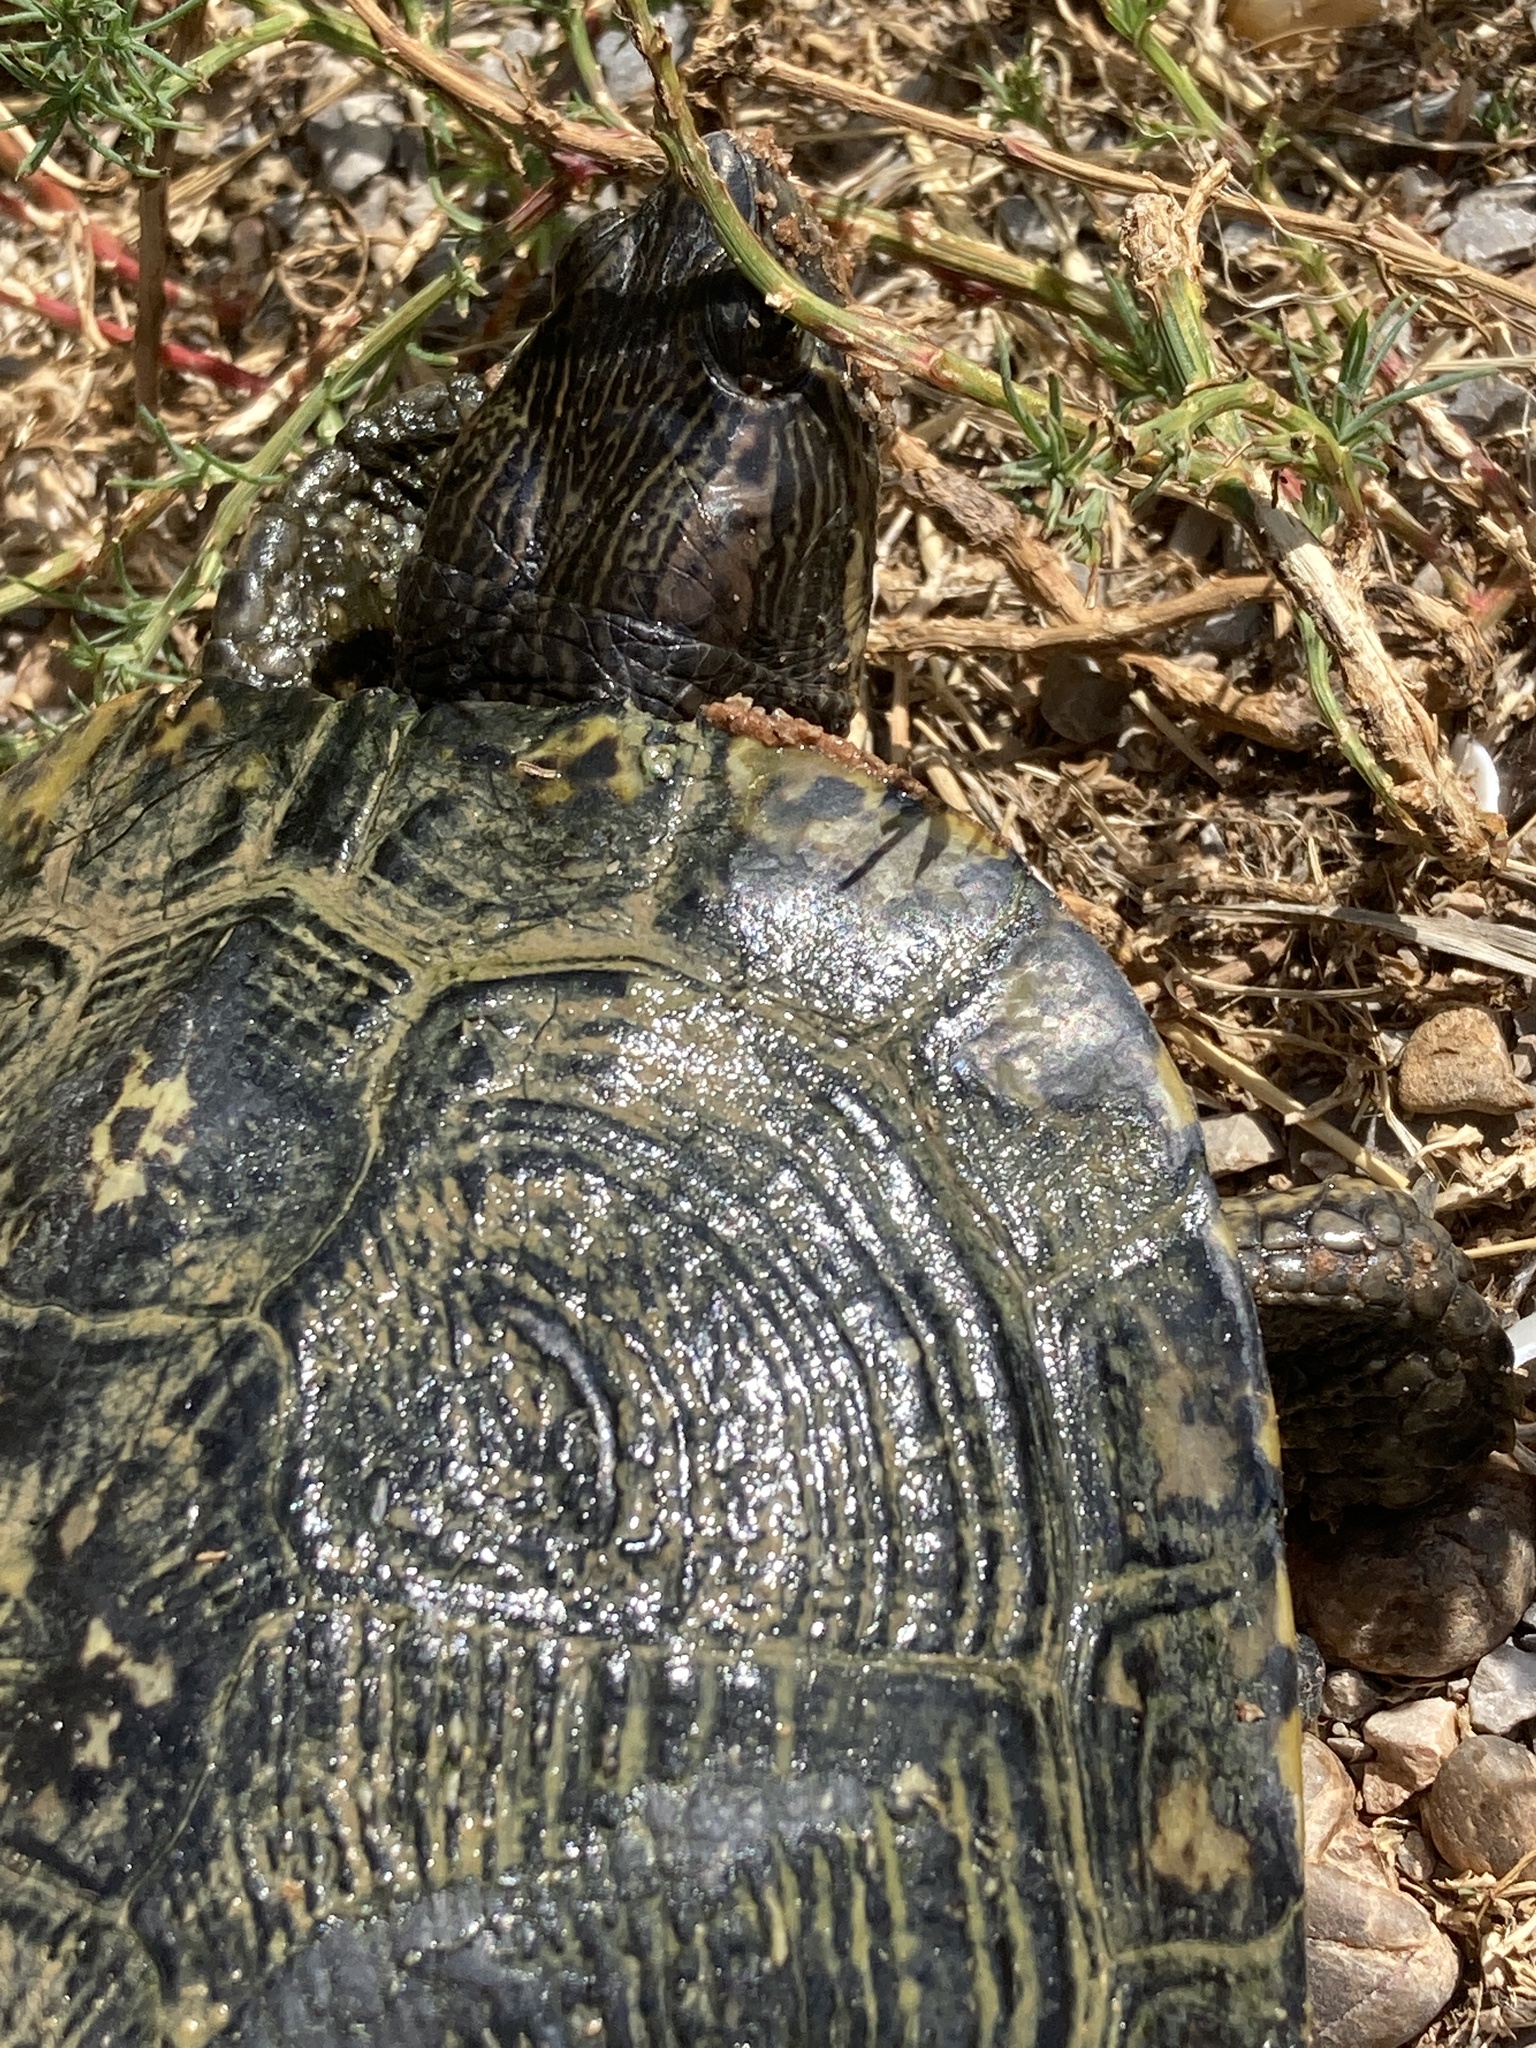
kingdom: Animalia
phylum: Chordata
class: Testudines
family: Emydidae
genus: Trachemys
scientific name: Trachemys scripta
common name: Slider
